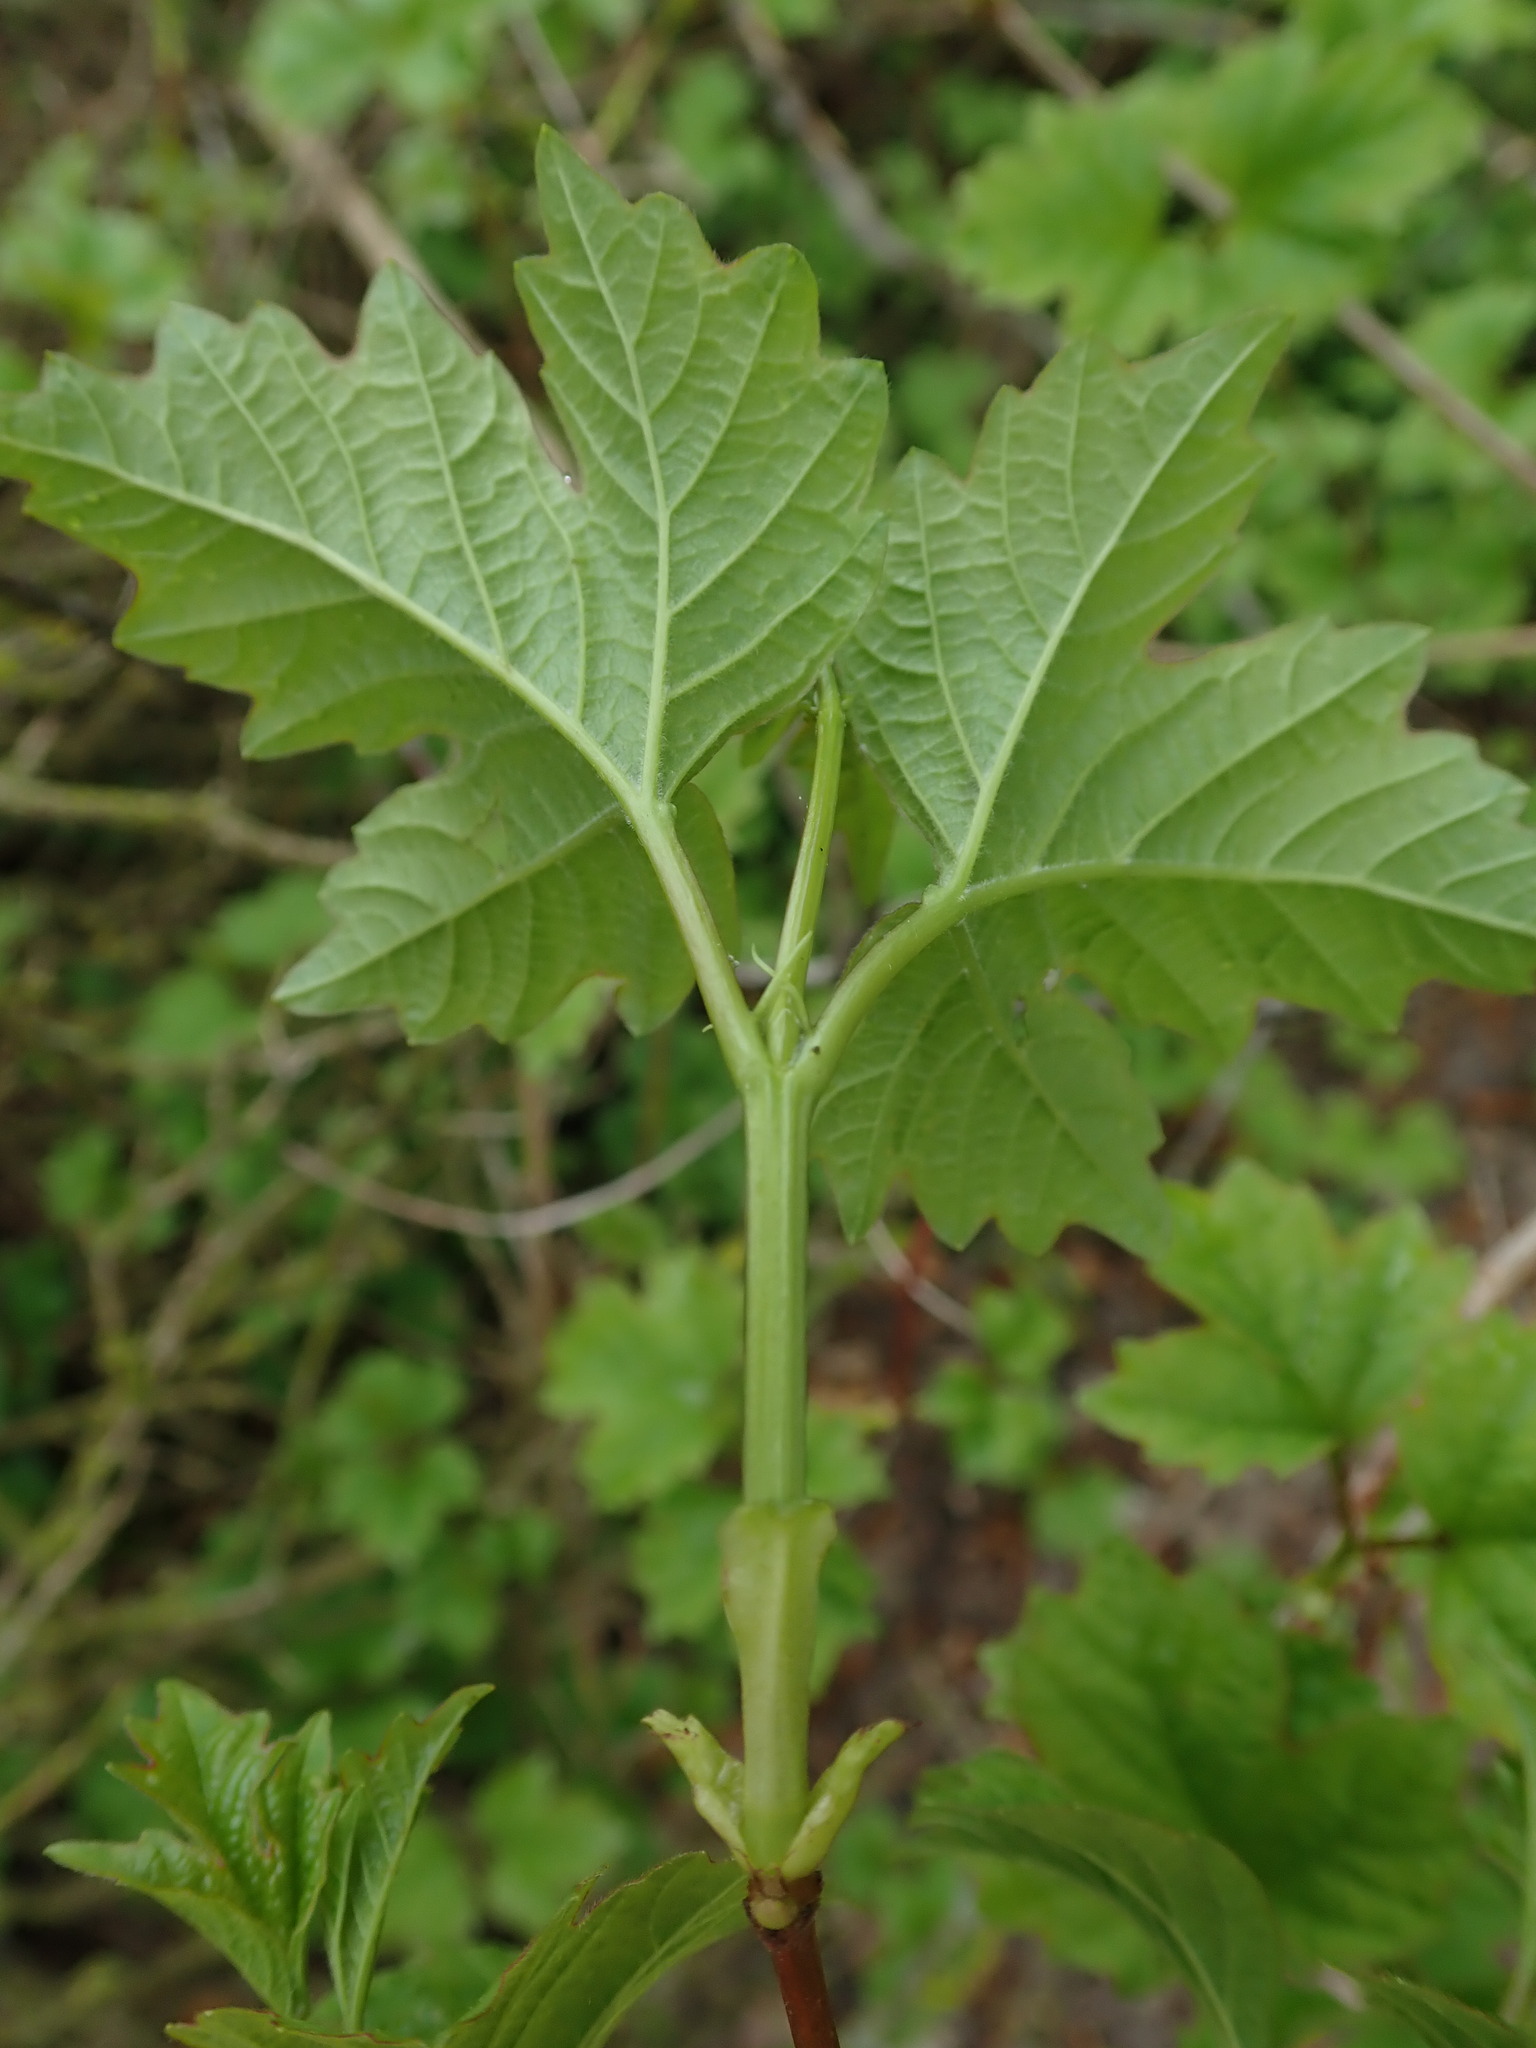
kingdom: Plantae
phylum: Tracheophyta
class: Magnoliopsida
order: Dipsacales
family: Viburnaceae
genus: Viburnum
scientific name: Viburnum opulus
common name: Guelder-rose
